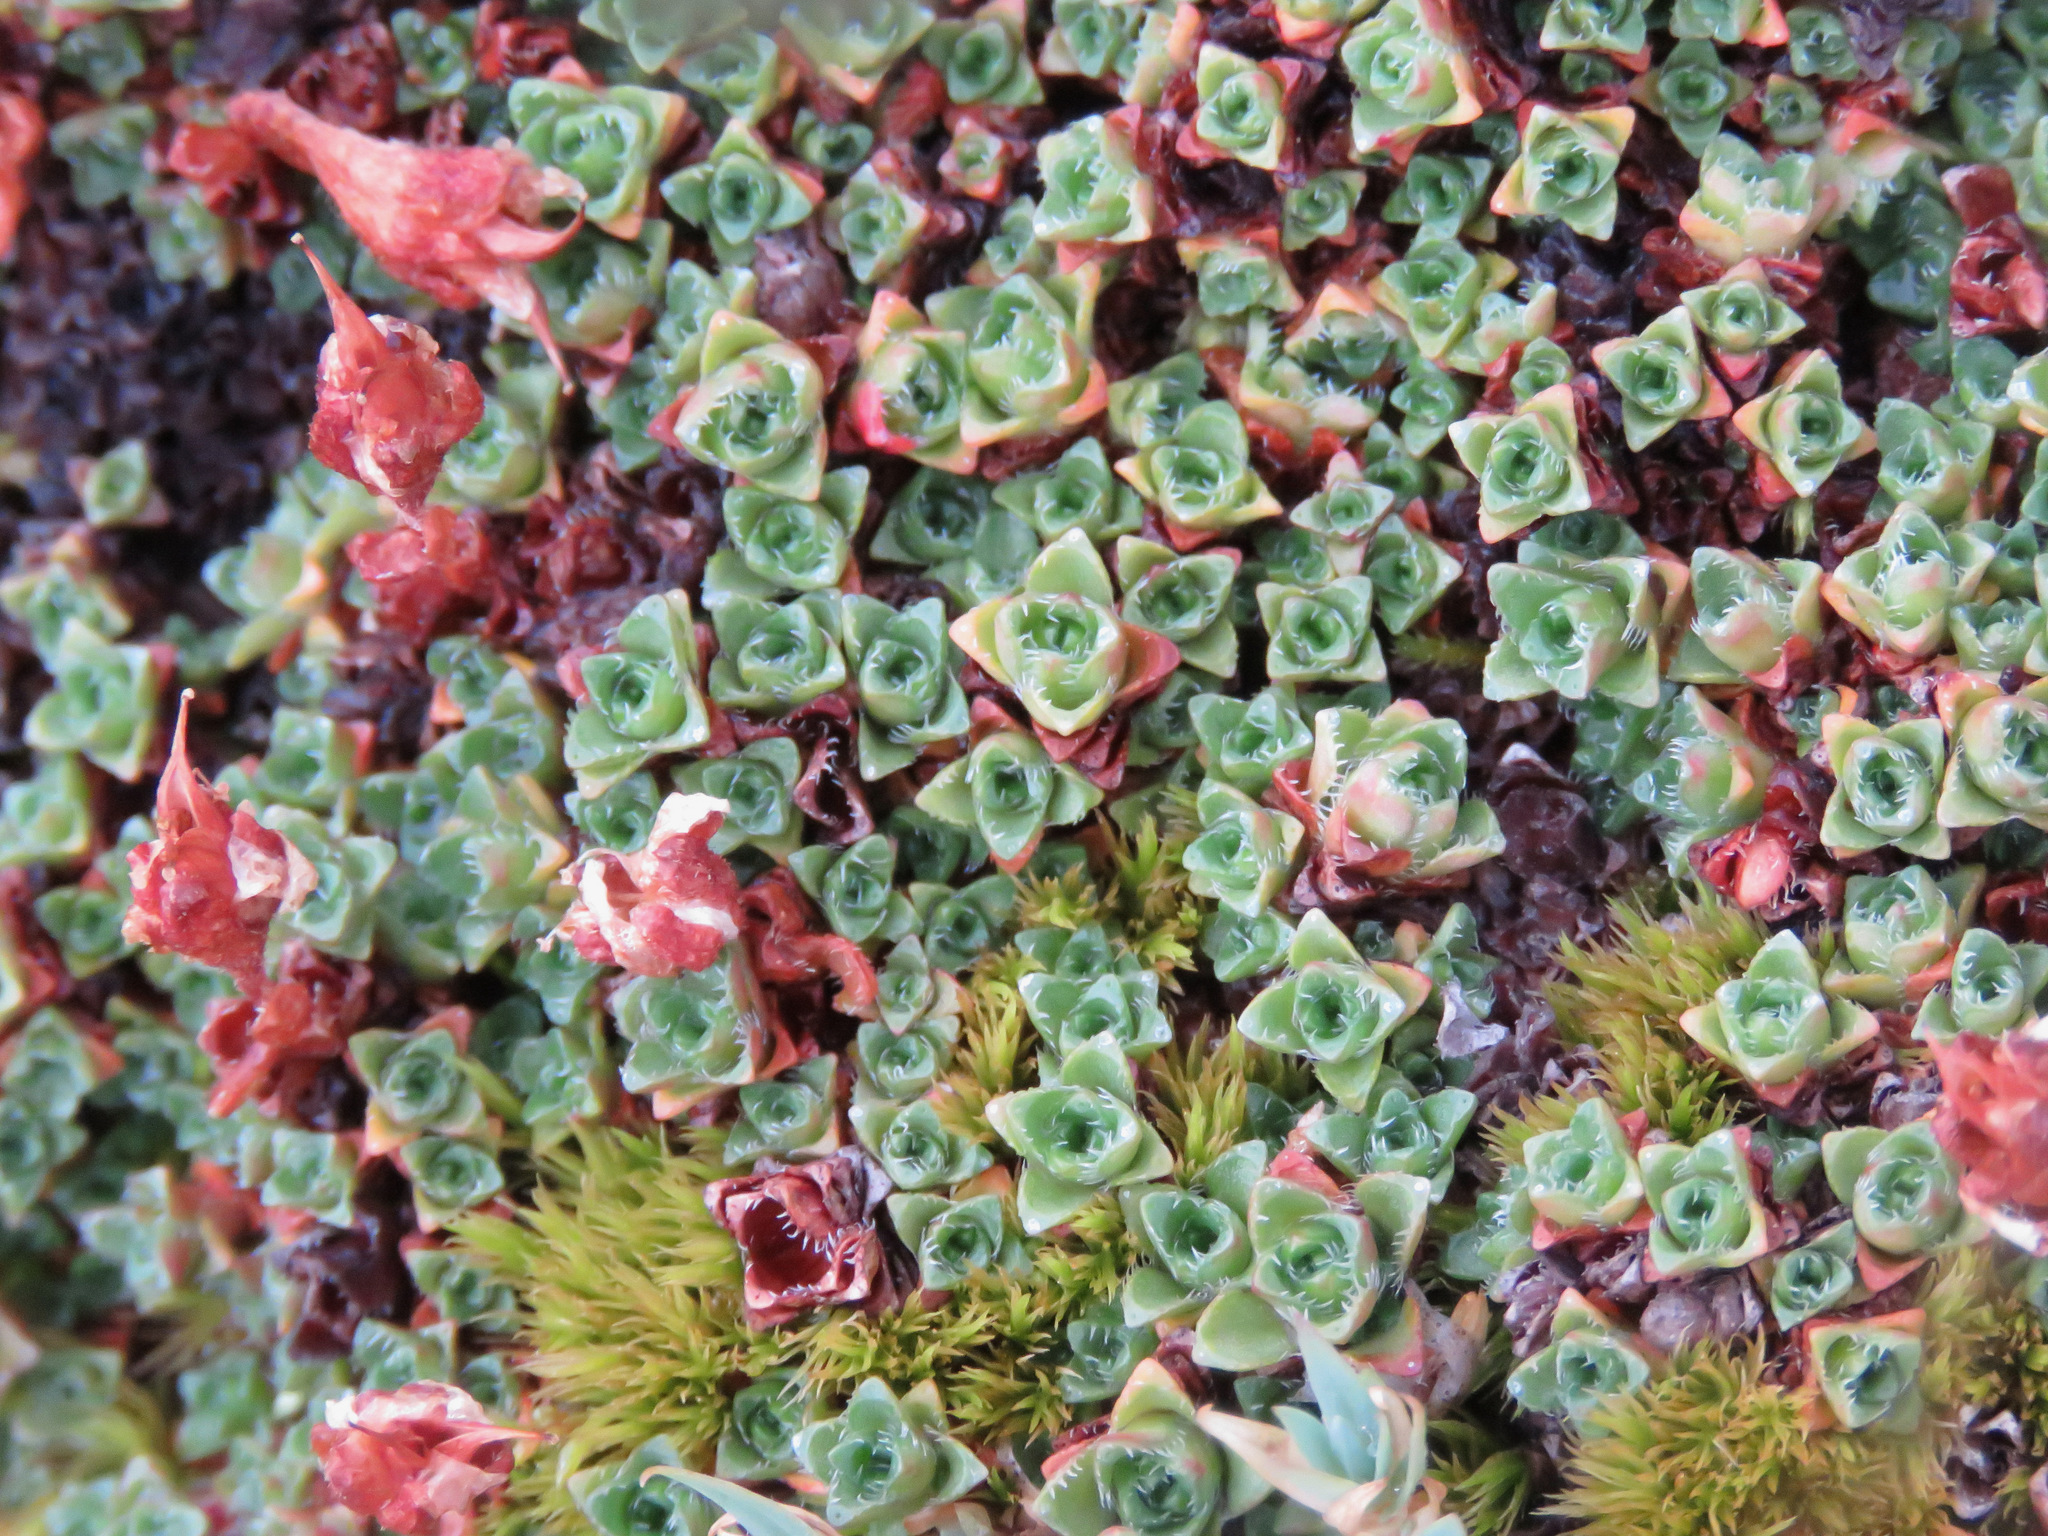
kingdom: Plantae
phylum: Tracheophyta
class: Magnoliopsida
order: Saxifragales
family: Saxifragaceae
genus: Saxifraga
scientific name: Saxifraga oppositifolia
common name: Purple saxifrage
